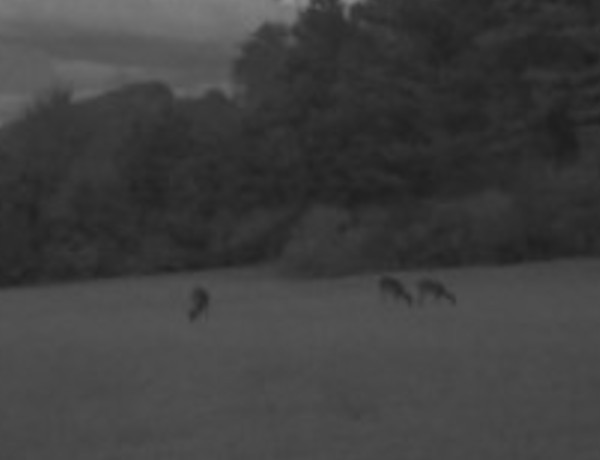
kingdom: Animalia
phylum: Chordata
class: Mammalia
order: Artiodactyla
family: Cervidae
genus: Odocoileus
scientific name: Odocoileus virginianus
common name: White-tailed deer
